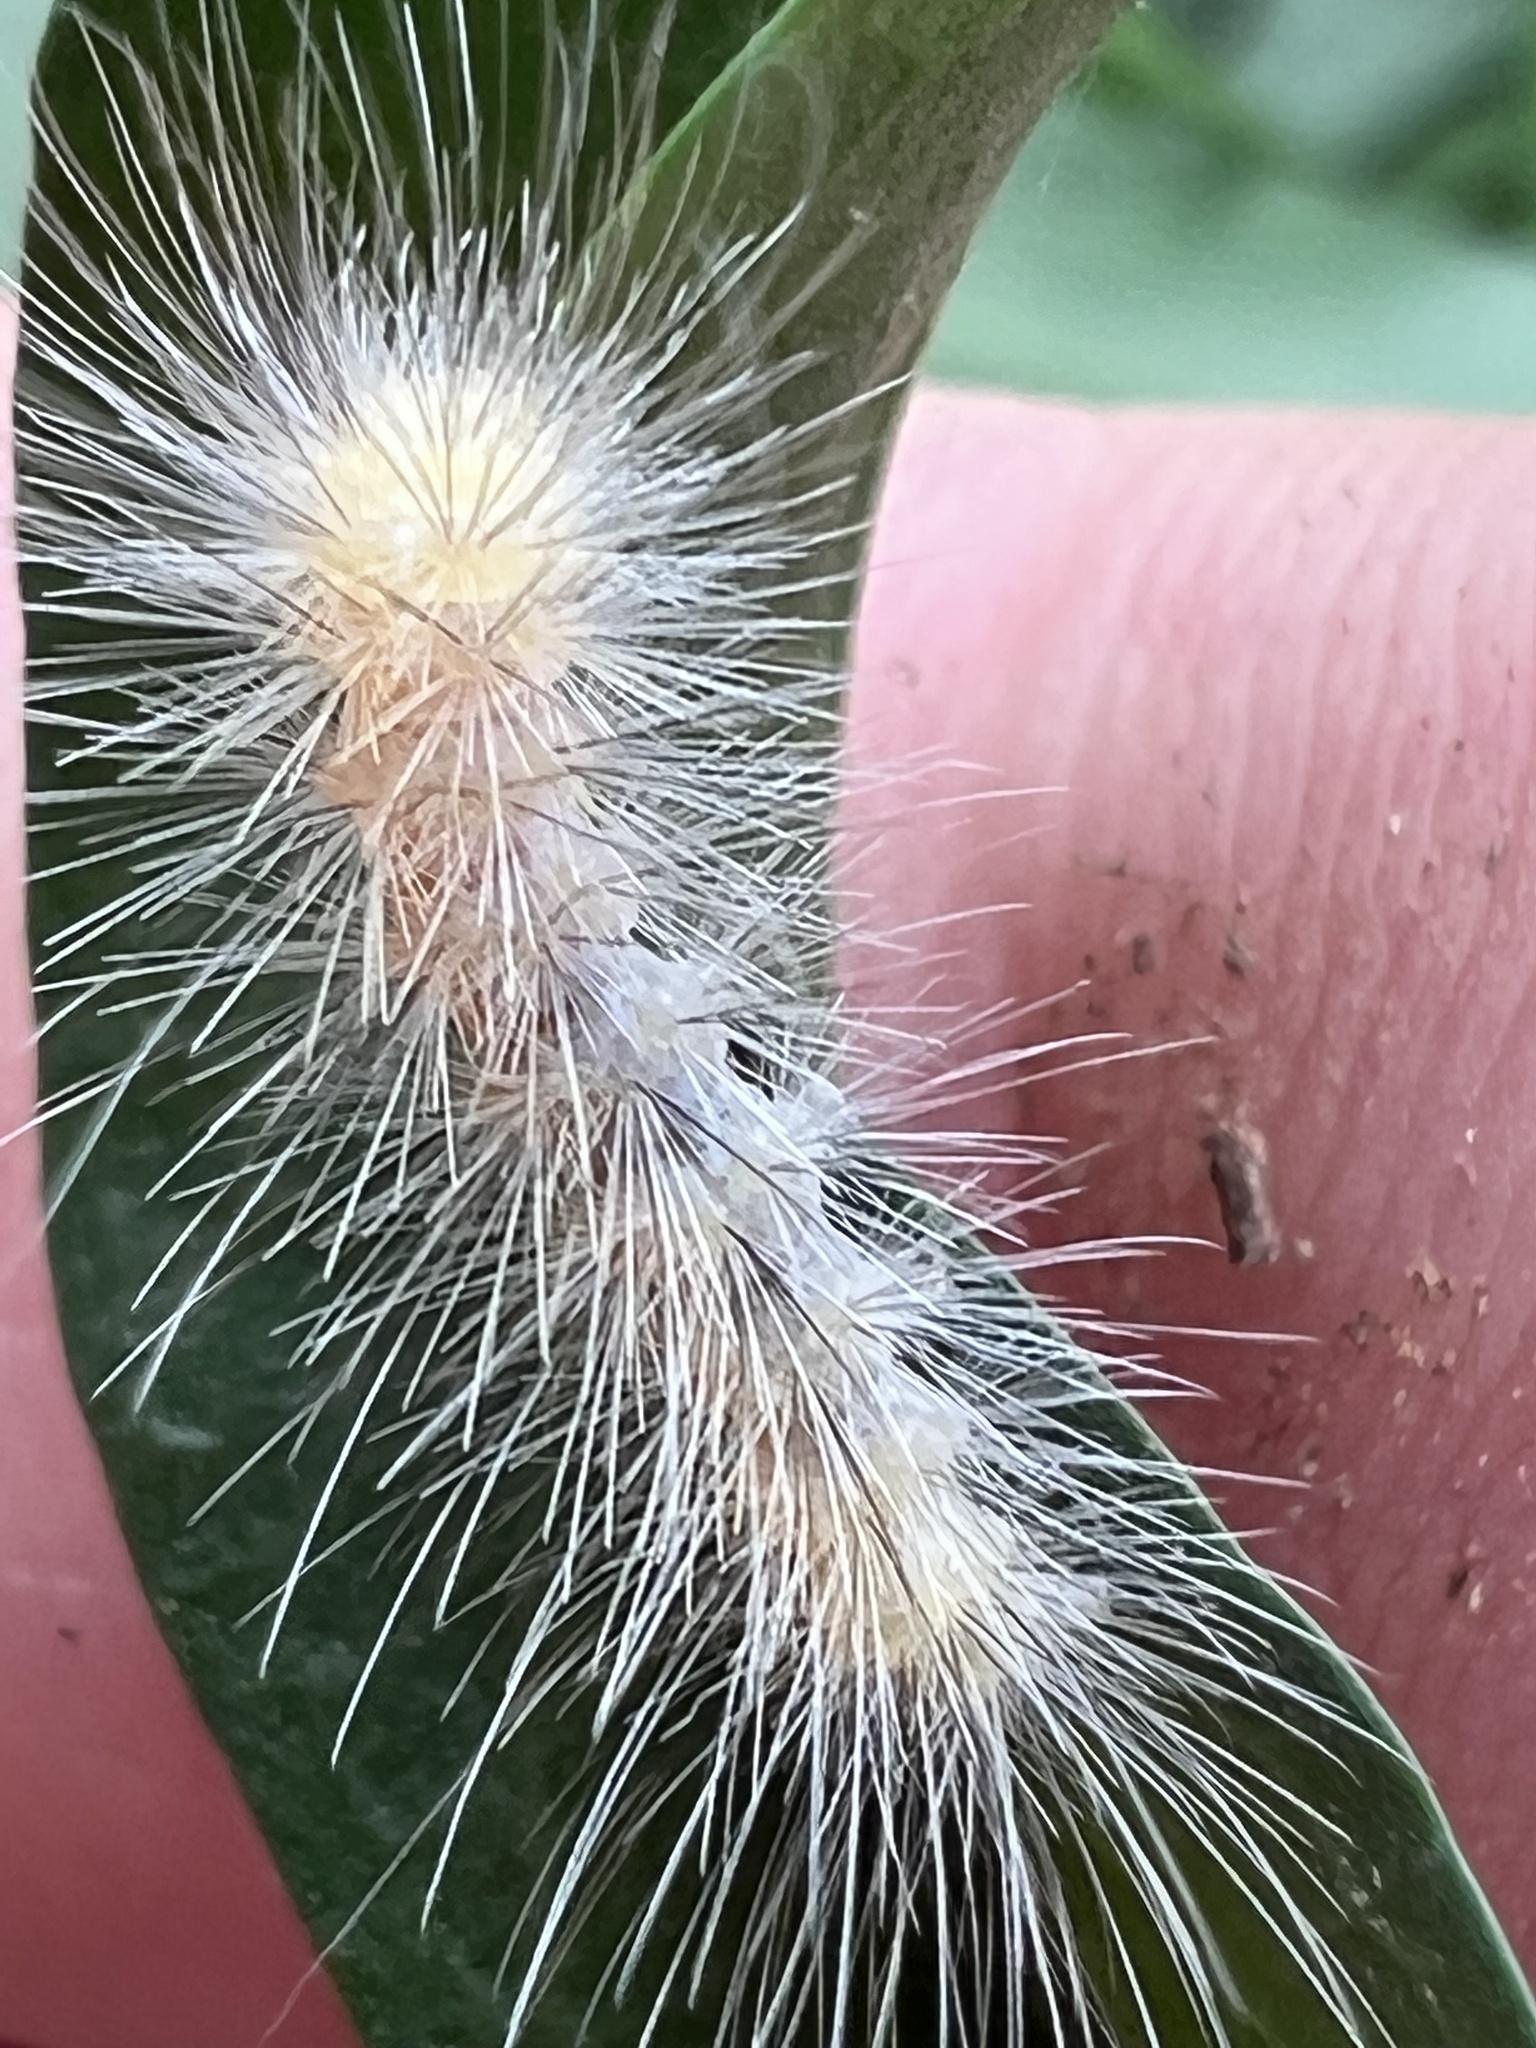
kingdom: Animalia
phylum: Arthropoda
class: Insecta
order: Lepidoptera
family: Erebidae
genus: Spilosoma
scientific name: Spilosoma virginica
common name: Virginia tiger moth
